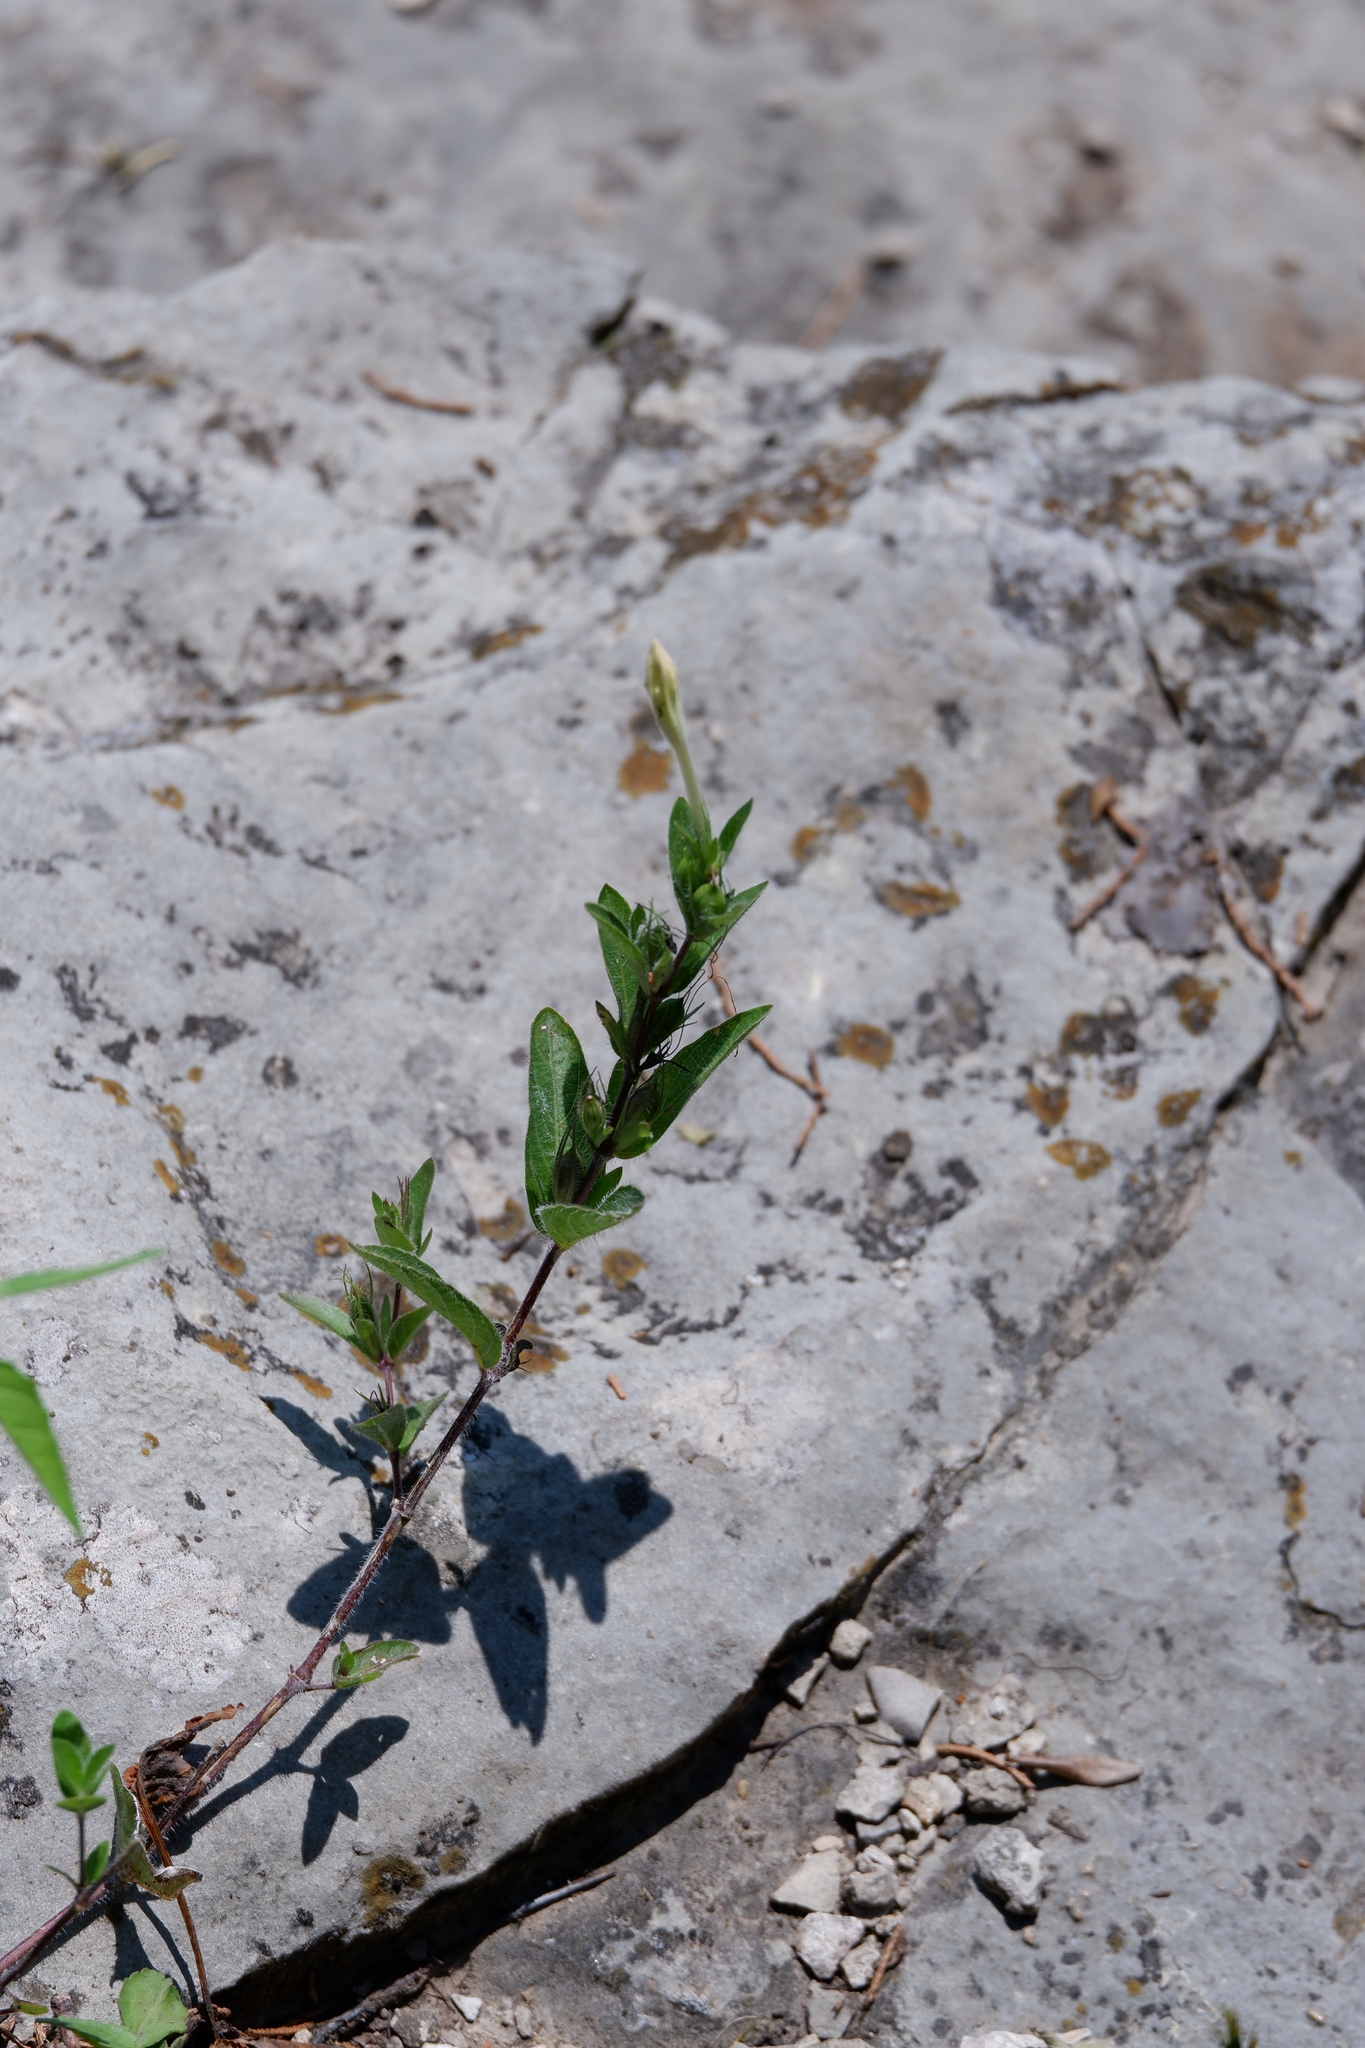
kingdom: Plantae
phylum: Tracheophyta
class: Magnoliopsida
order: Lamiales
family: Acanthaceae
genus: Ruellia
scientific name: Ruellia humilis
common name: Fringe-leaf ruellia
